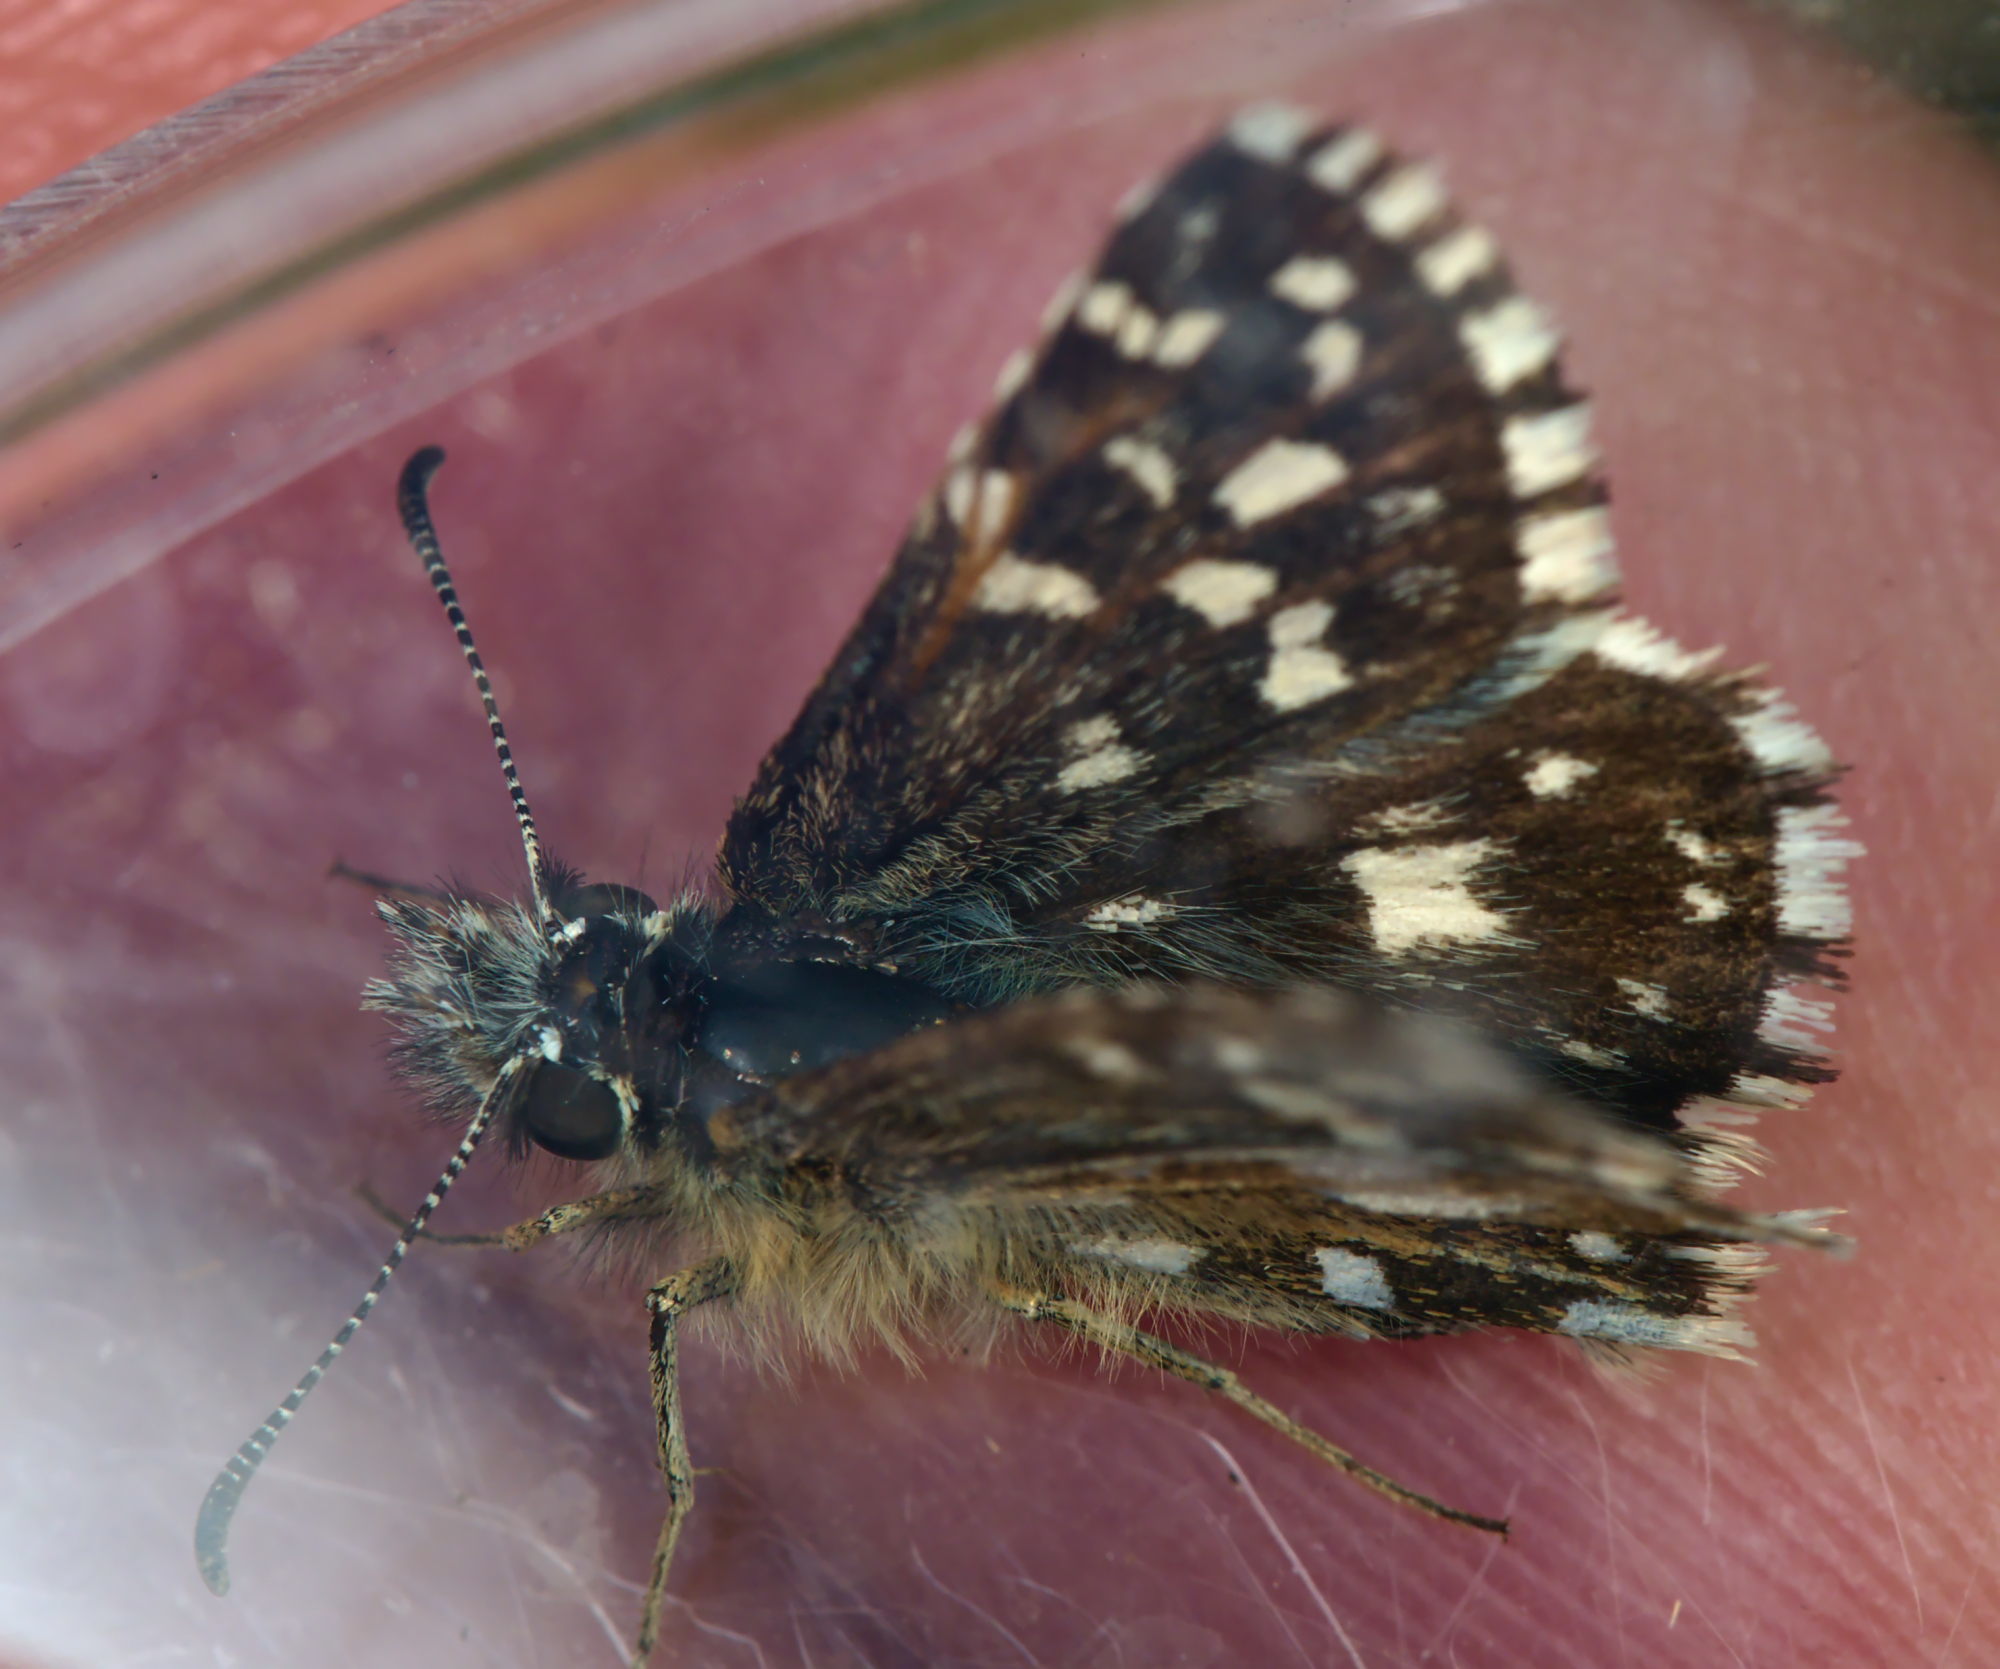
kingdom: Animalia
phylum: Arthropoda
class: Insecta
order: Lepidoptera
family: Hesperiidae
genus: Pyrgus
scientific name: Pyrgus malvae
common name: Grizzled skipper
